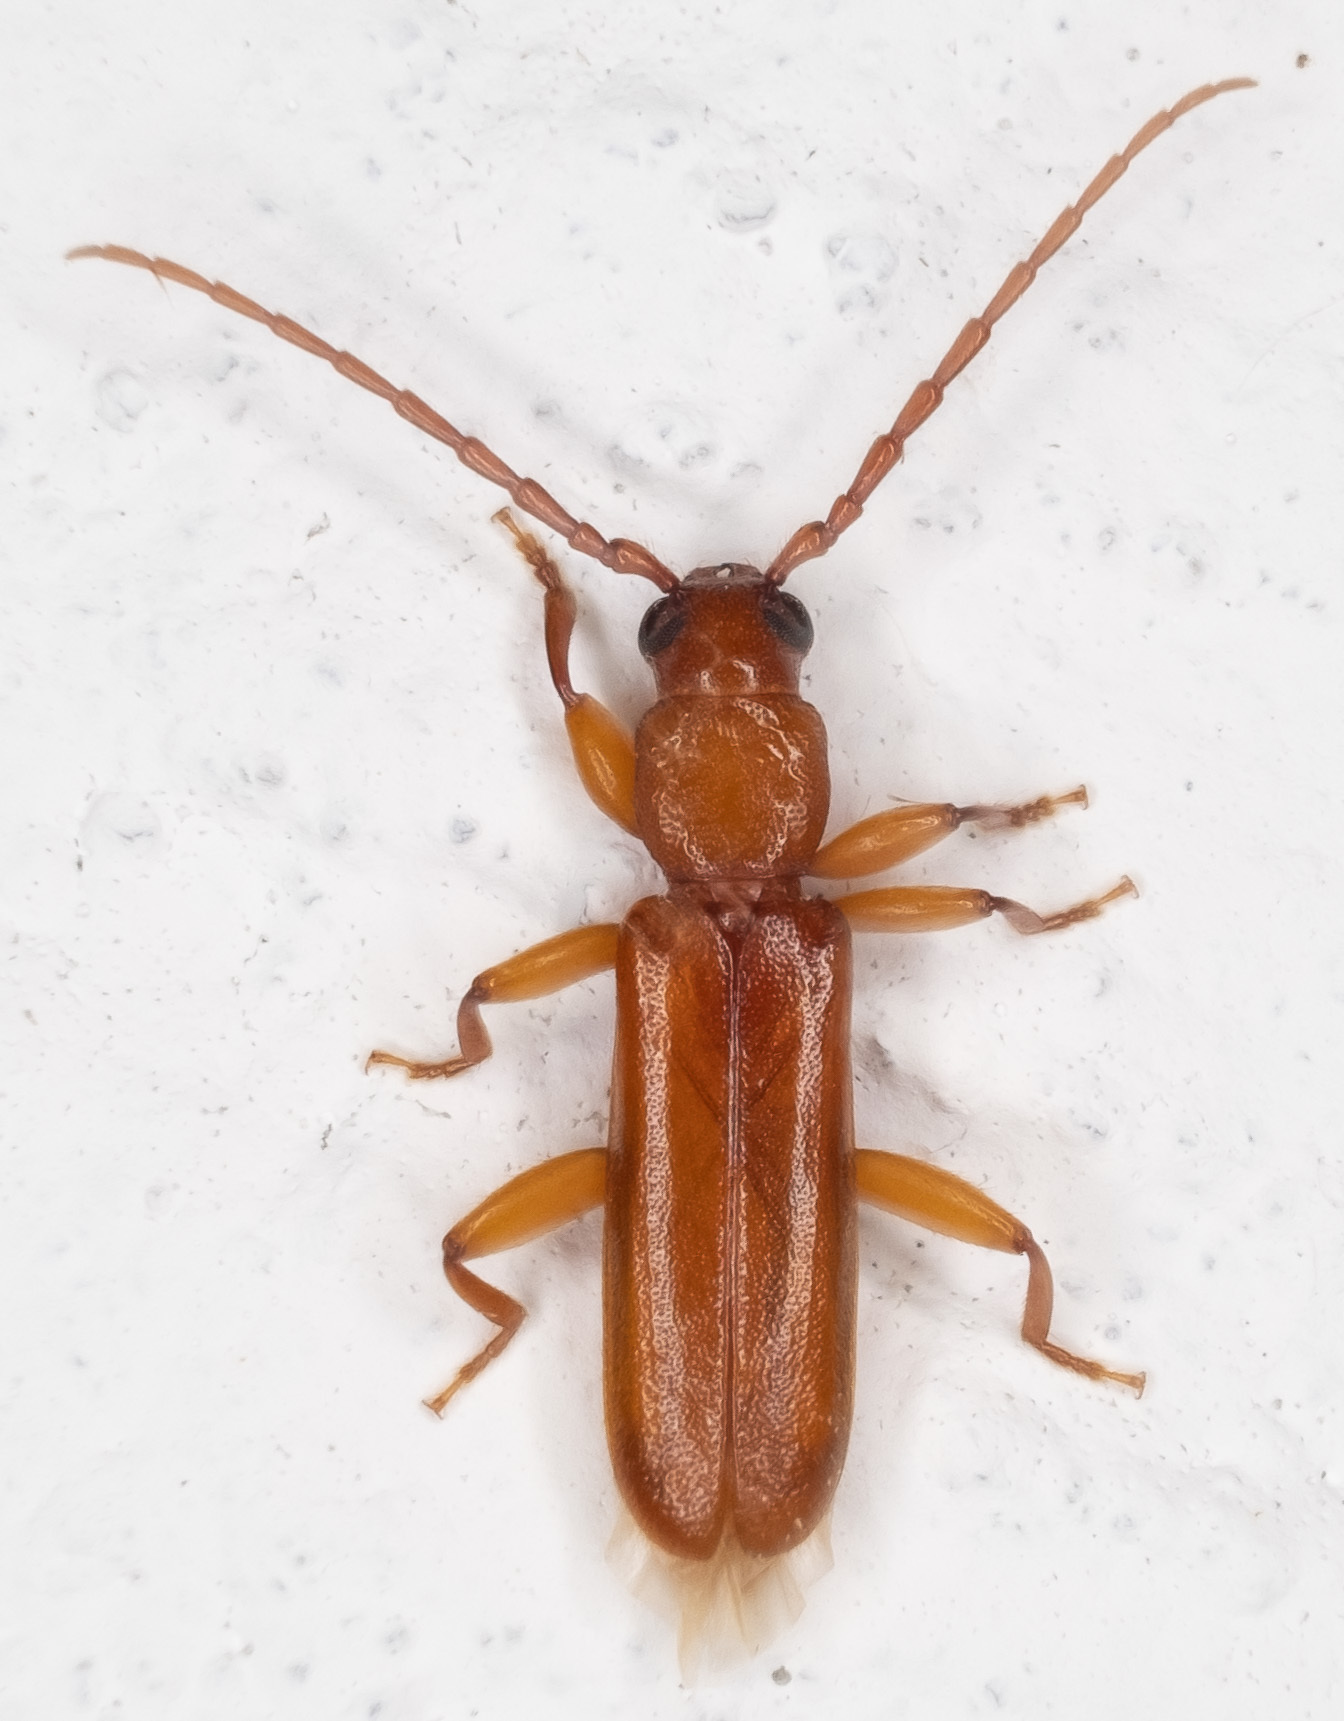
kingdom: Animalia
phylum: Arthropoda
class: Insecta
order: Coleoptera
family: Cerambycidae
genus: Smodicum
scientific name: Smodicum cucujiforme
